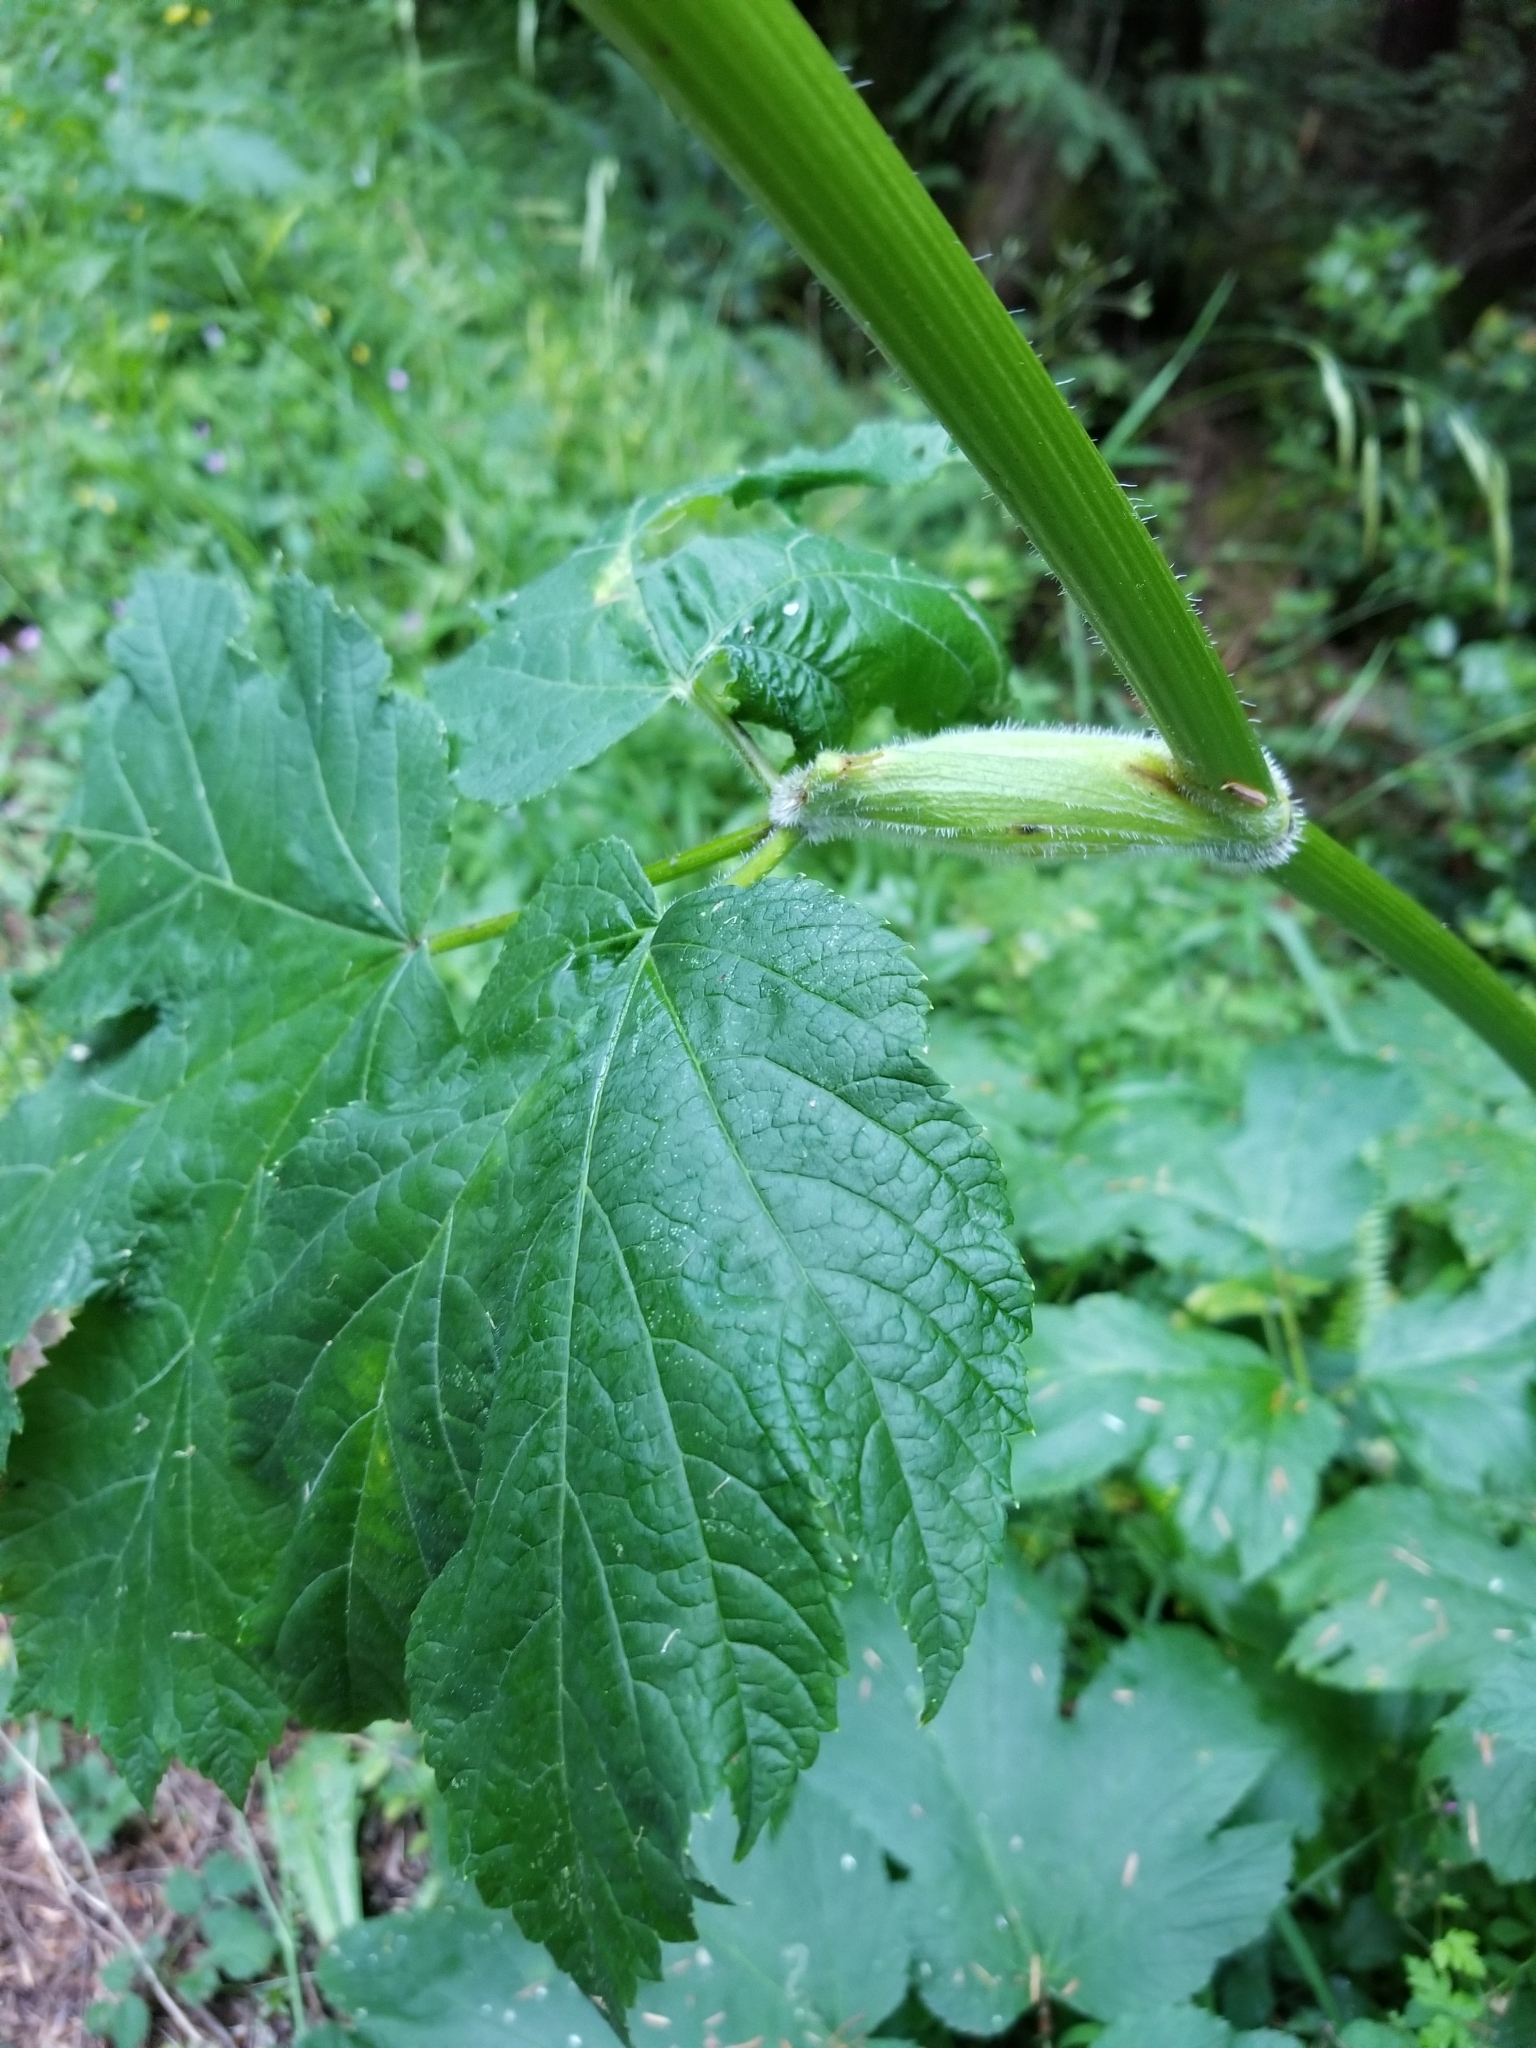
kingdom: Plantae
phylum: Tracheophyta
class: Magnoliopsida
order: Apiales
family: Apiaceae
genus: Heracleum
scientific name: Heracleum maximum
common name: American cow parsnip
